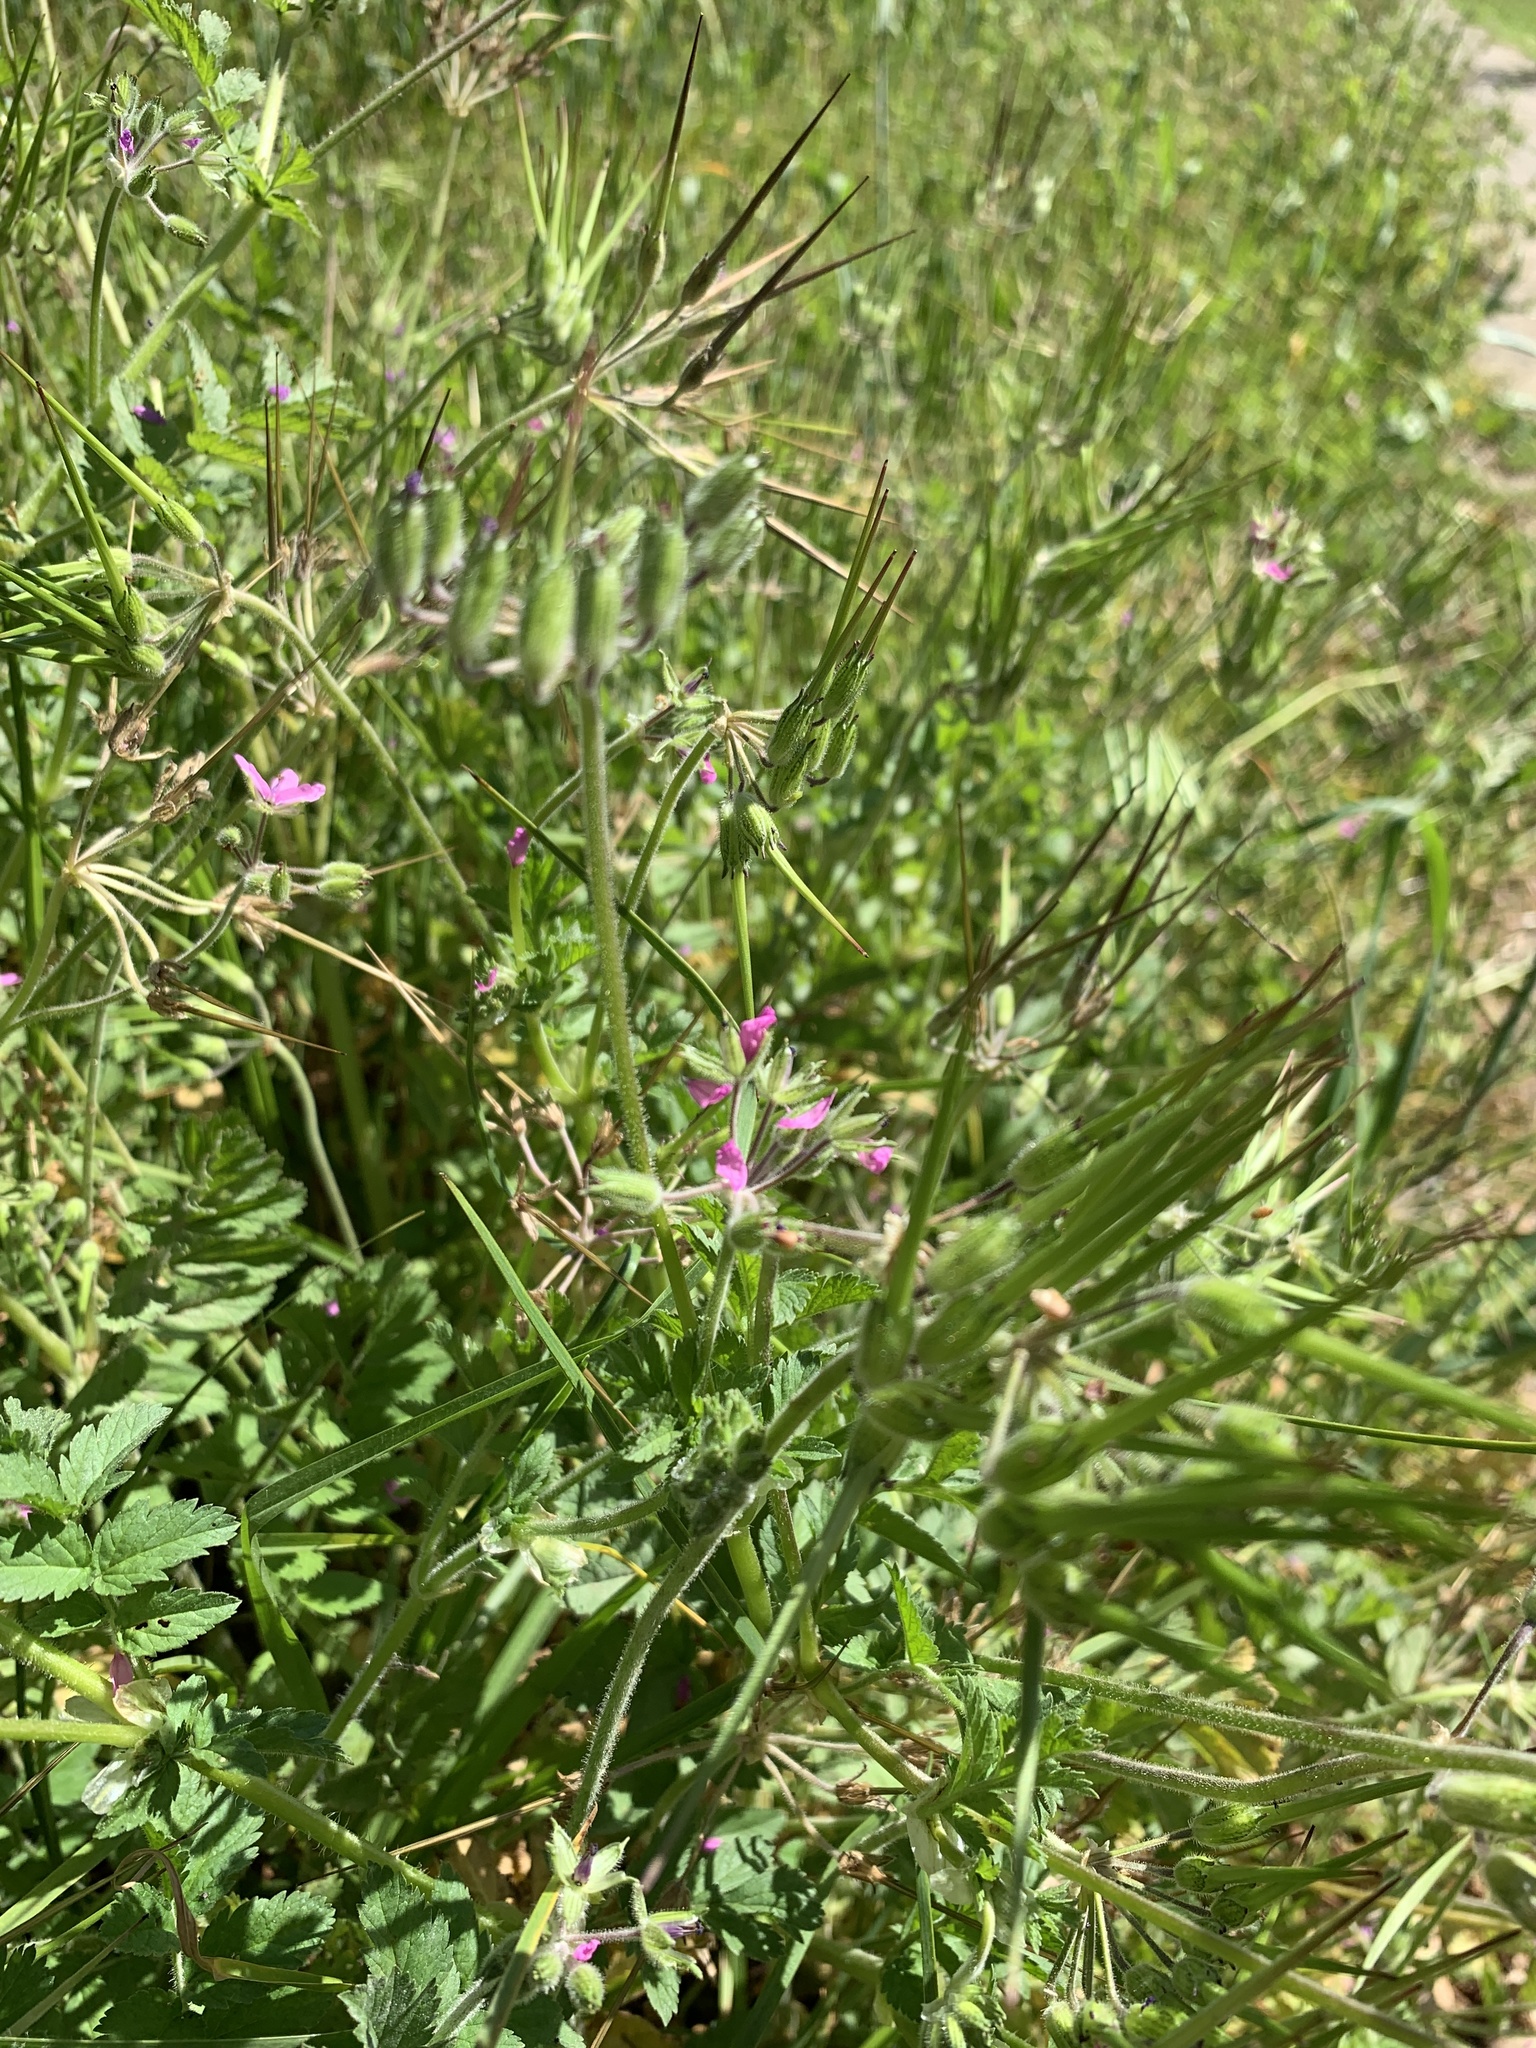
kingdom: Plantae
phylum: Tracheophyta
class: Magnoliopsida
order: Geraniales
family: Geraniaceae
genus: Erodium
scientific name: Erodium moschatum
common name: Musk stork's-bill
